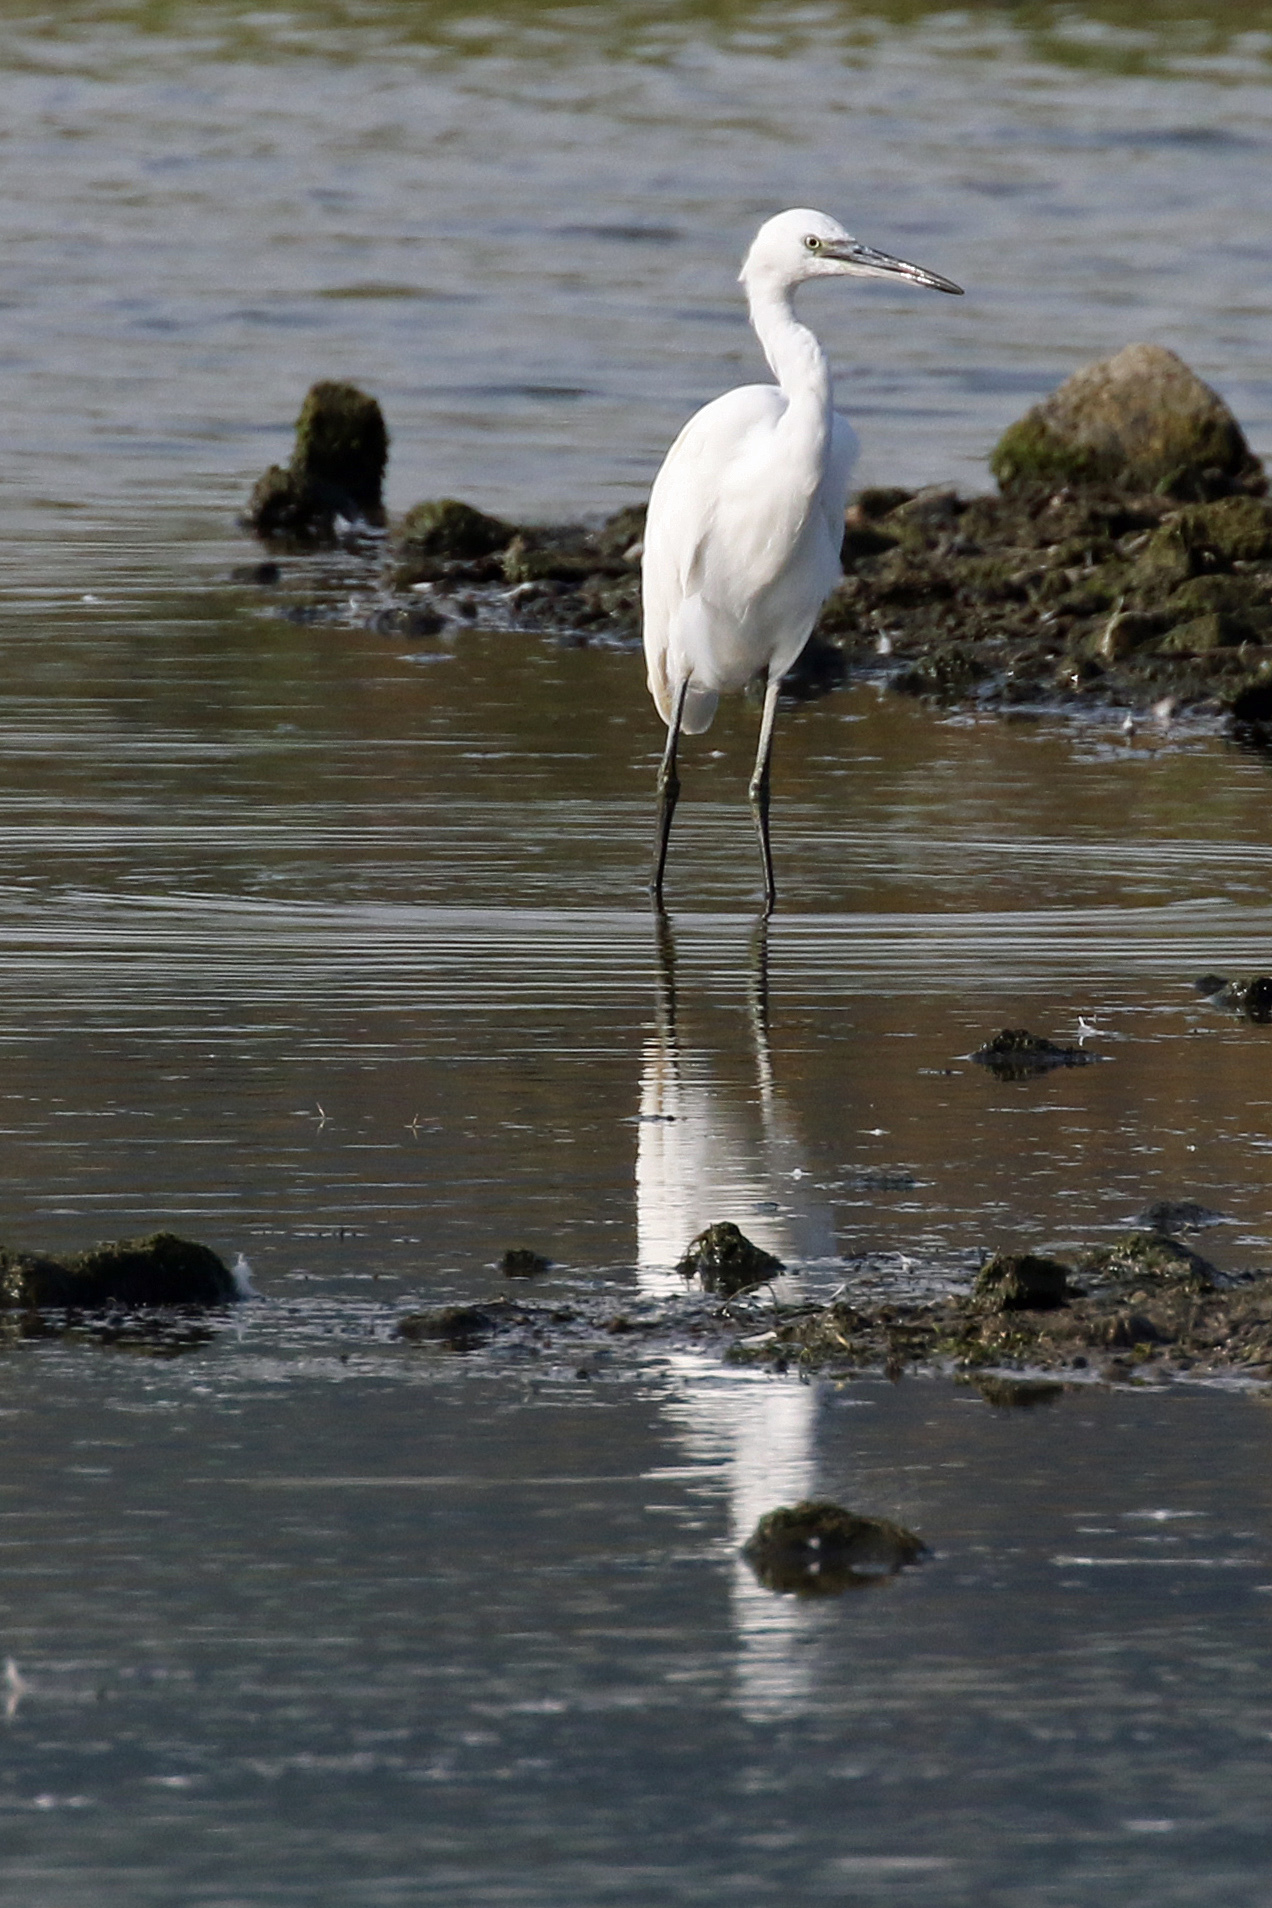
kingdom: Animalia
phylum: Chordata
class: Aves
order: Pelecaniformes
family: Ardeidae
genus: Egretta
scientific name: Egretta garzetta
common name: Little egret
